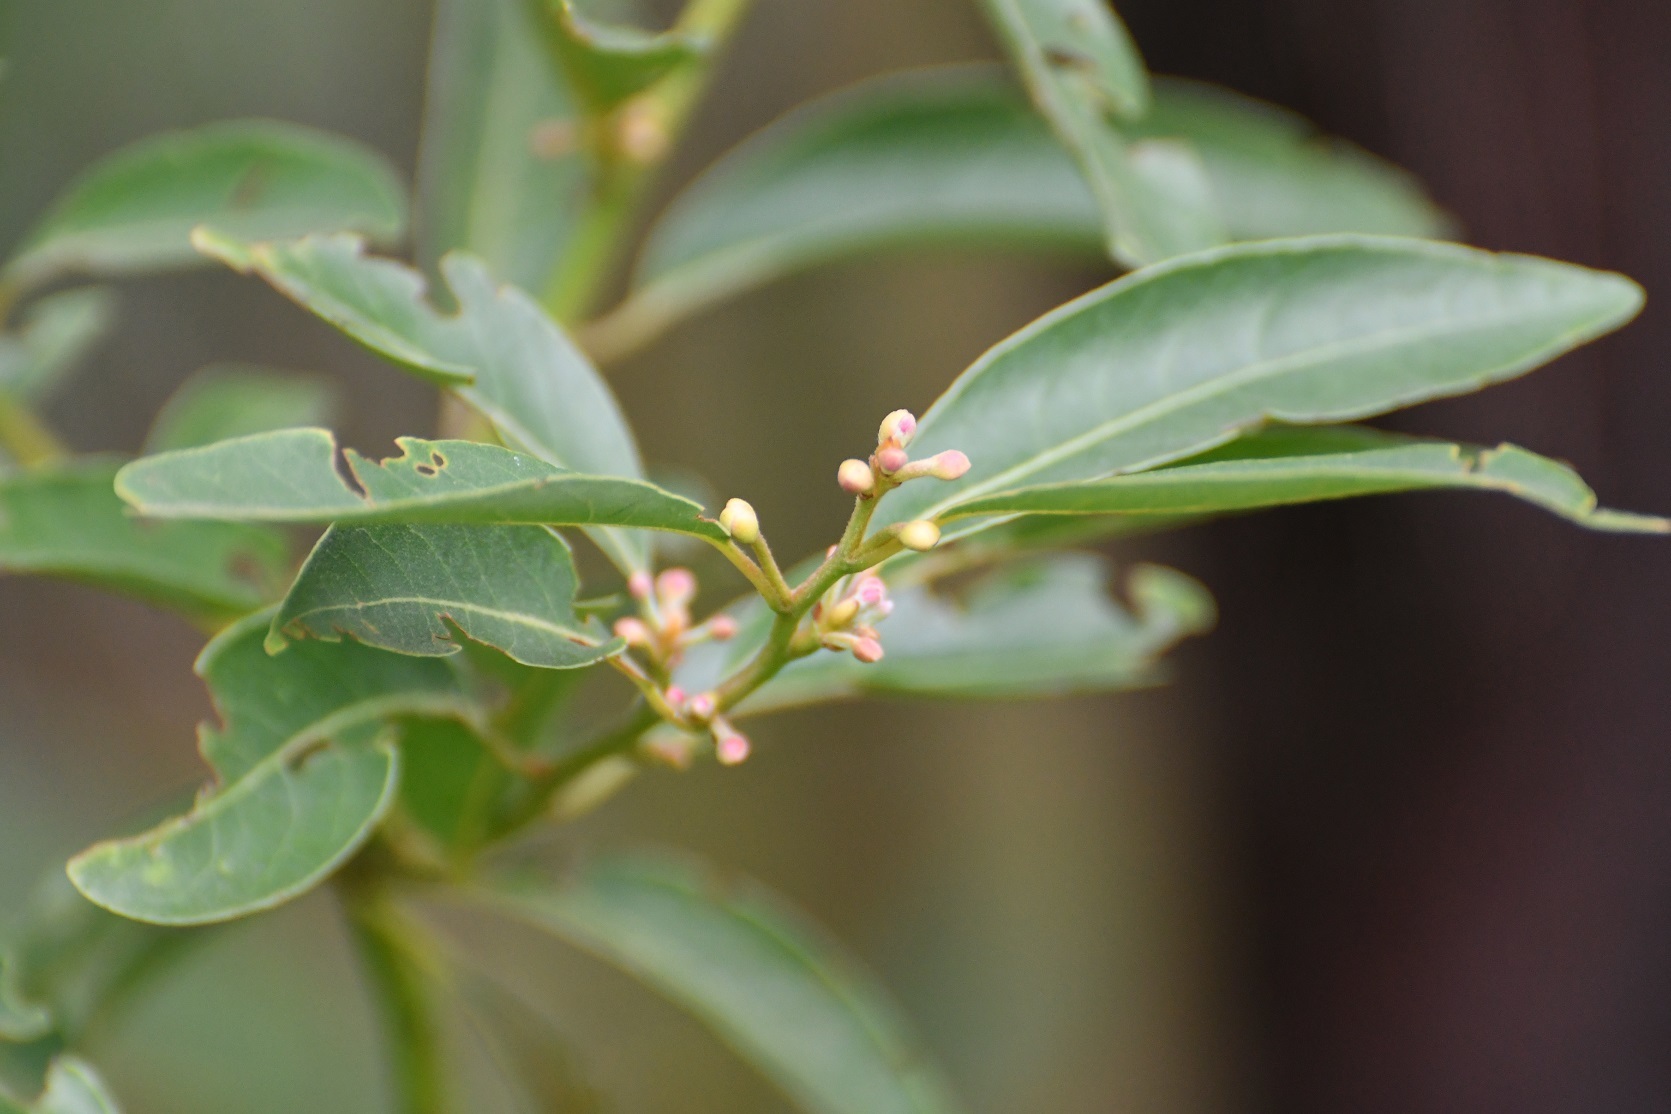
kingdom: Plantae
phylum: Tracheophyta
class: Magnoliopsida
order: Laurales
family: Lauraceae
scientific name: Lauraceae
